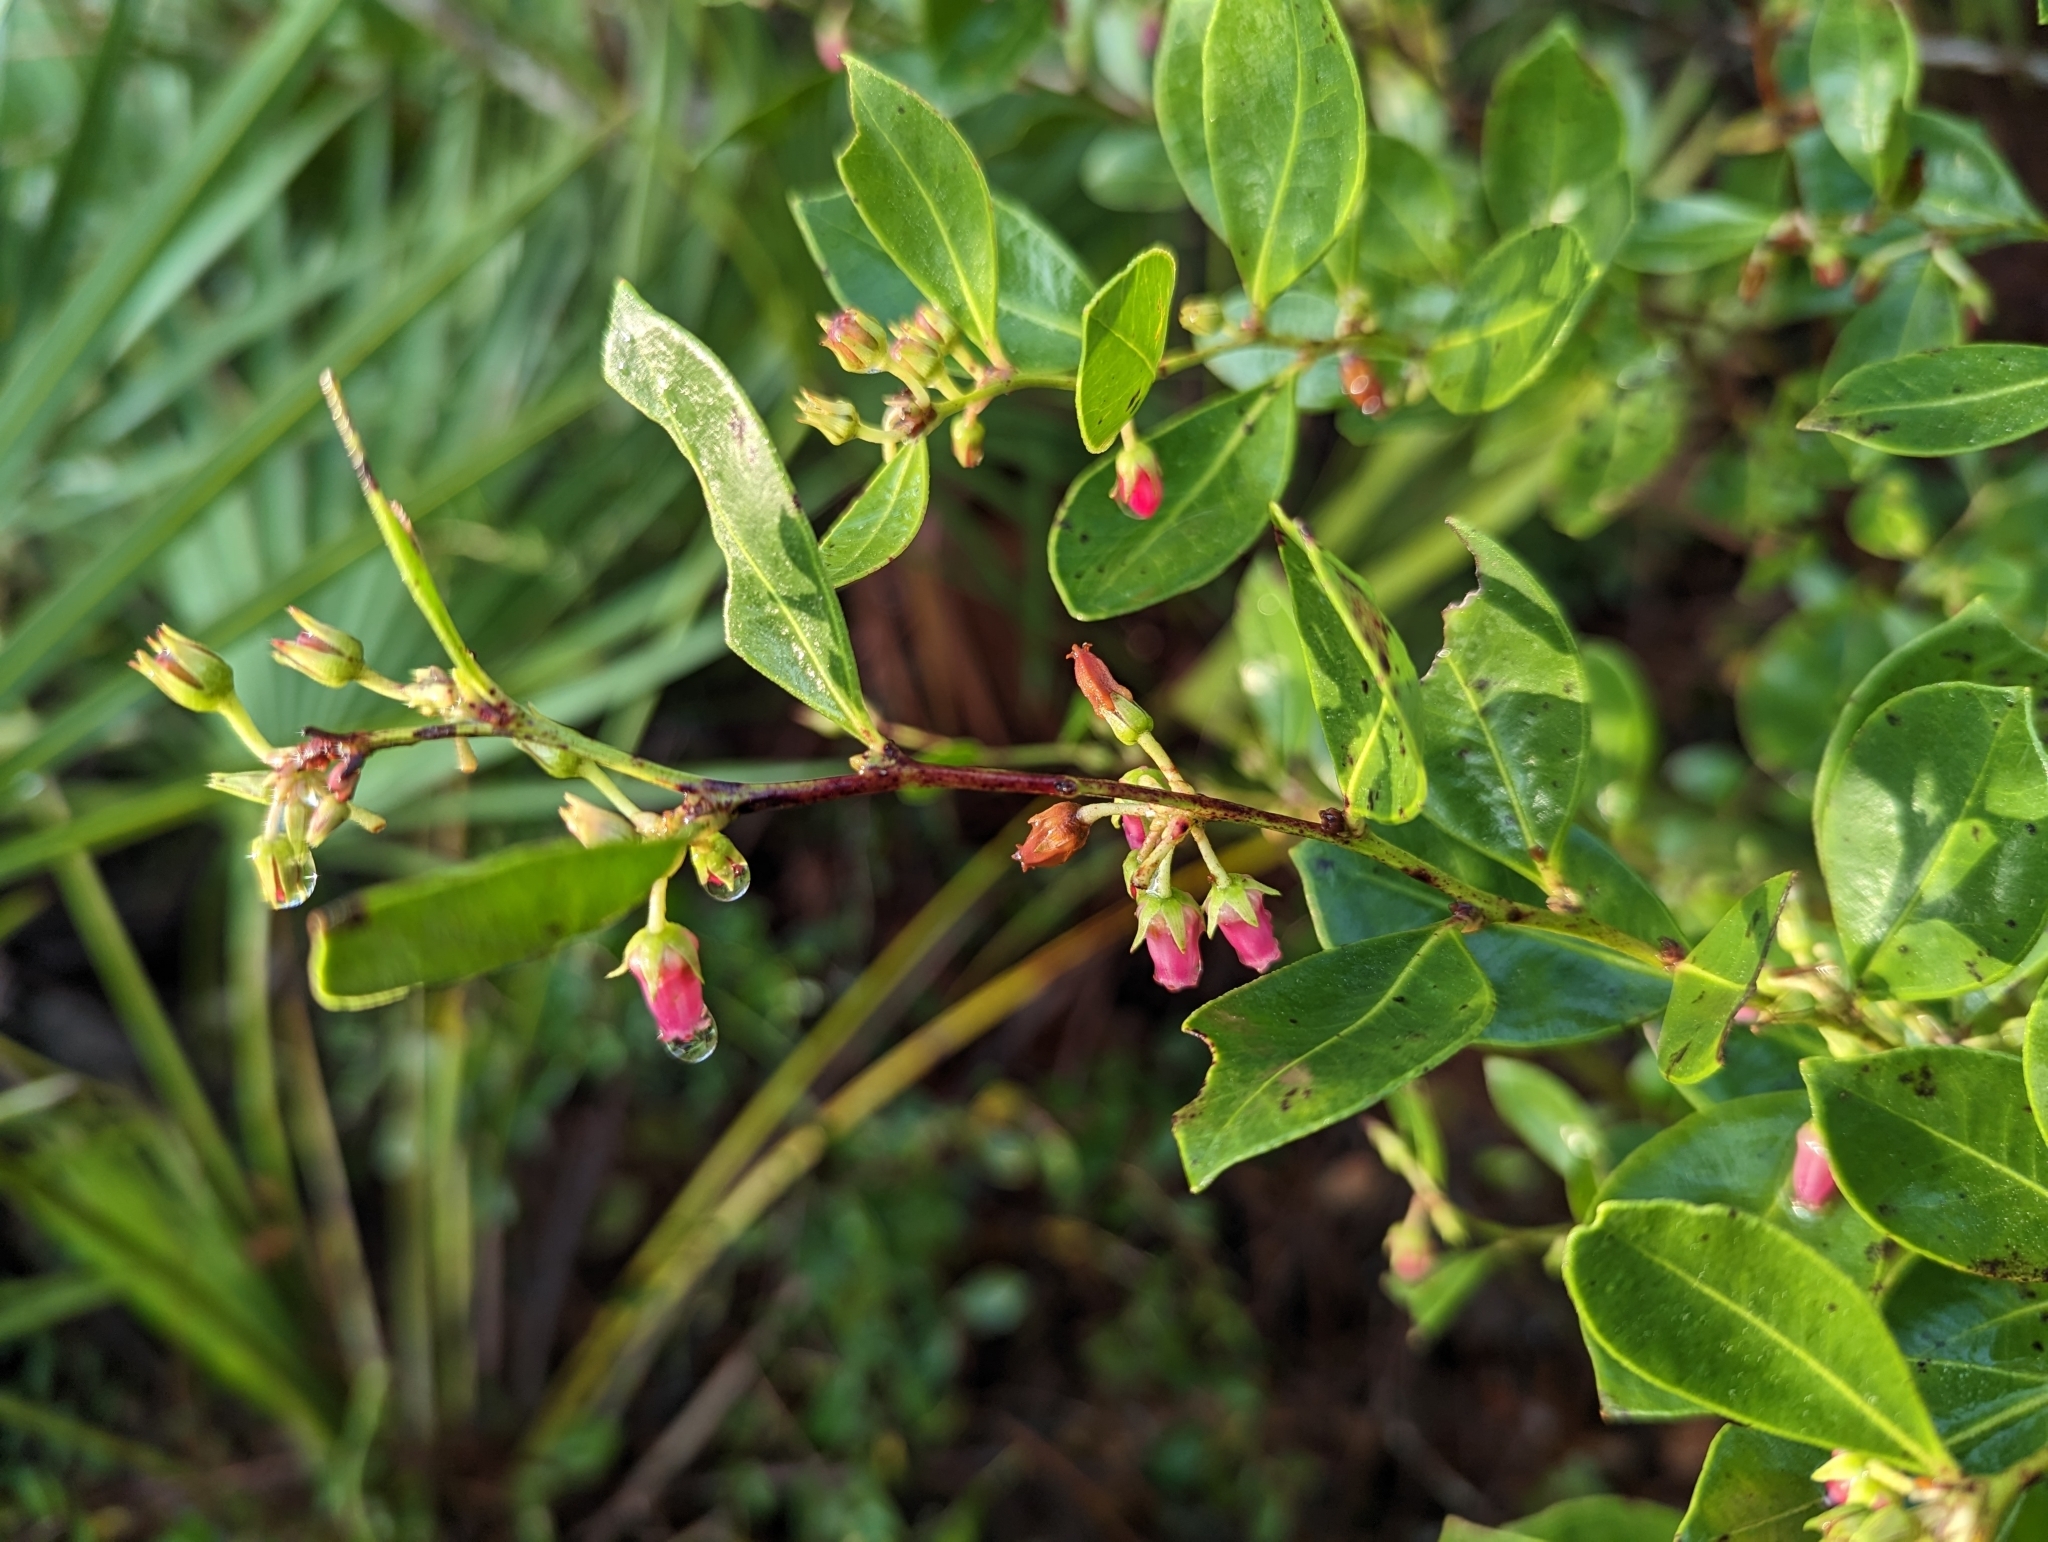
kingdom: Plantae
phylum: Tracheophyta
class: Magnoliopsida
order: Ericales
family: Ericaceae
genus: Lyonia
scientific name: Lyonia lucida
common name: Fetterbush
